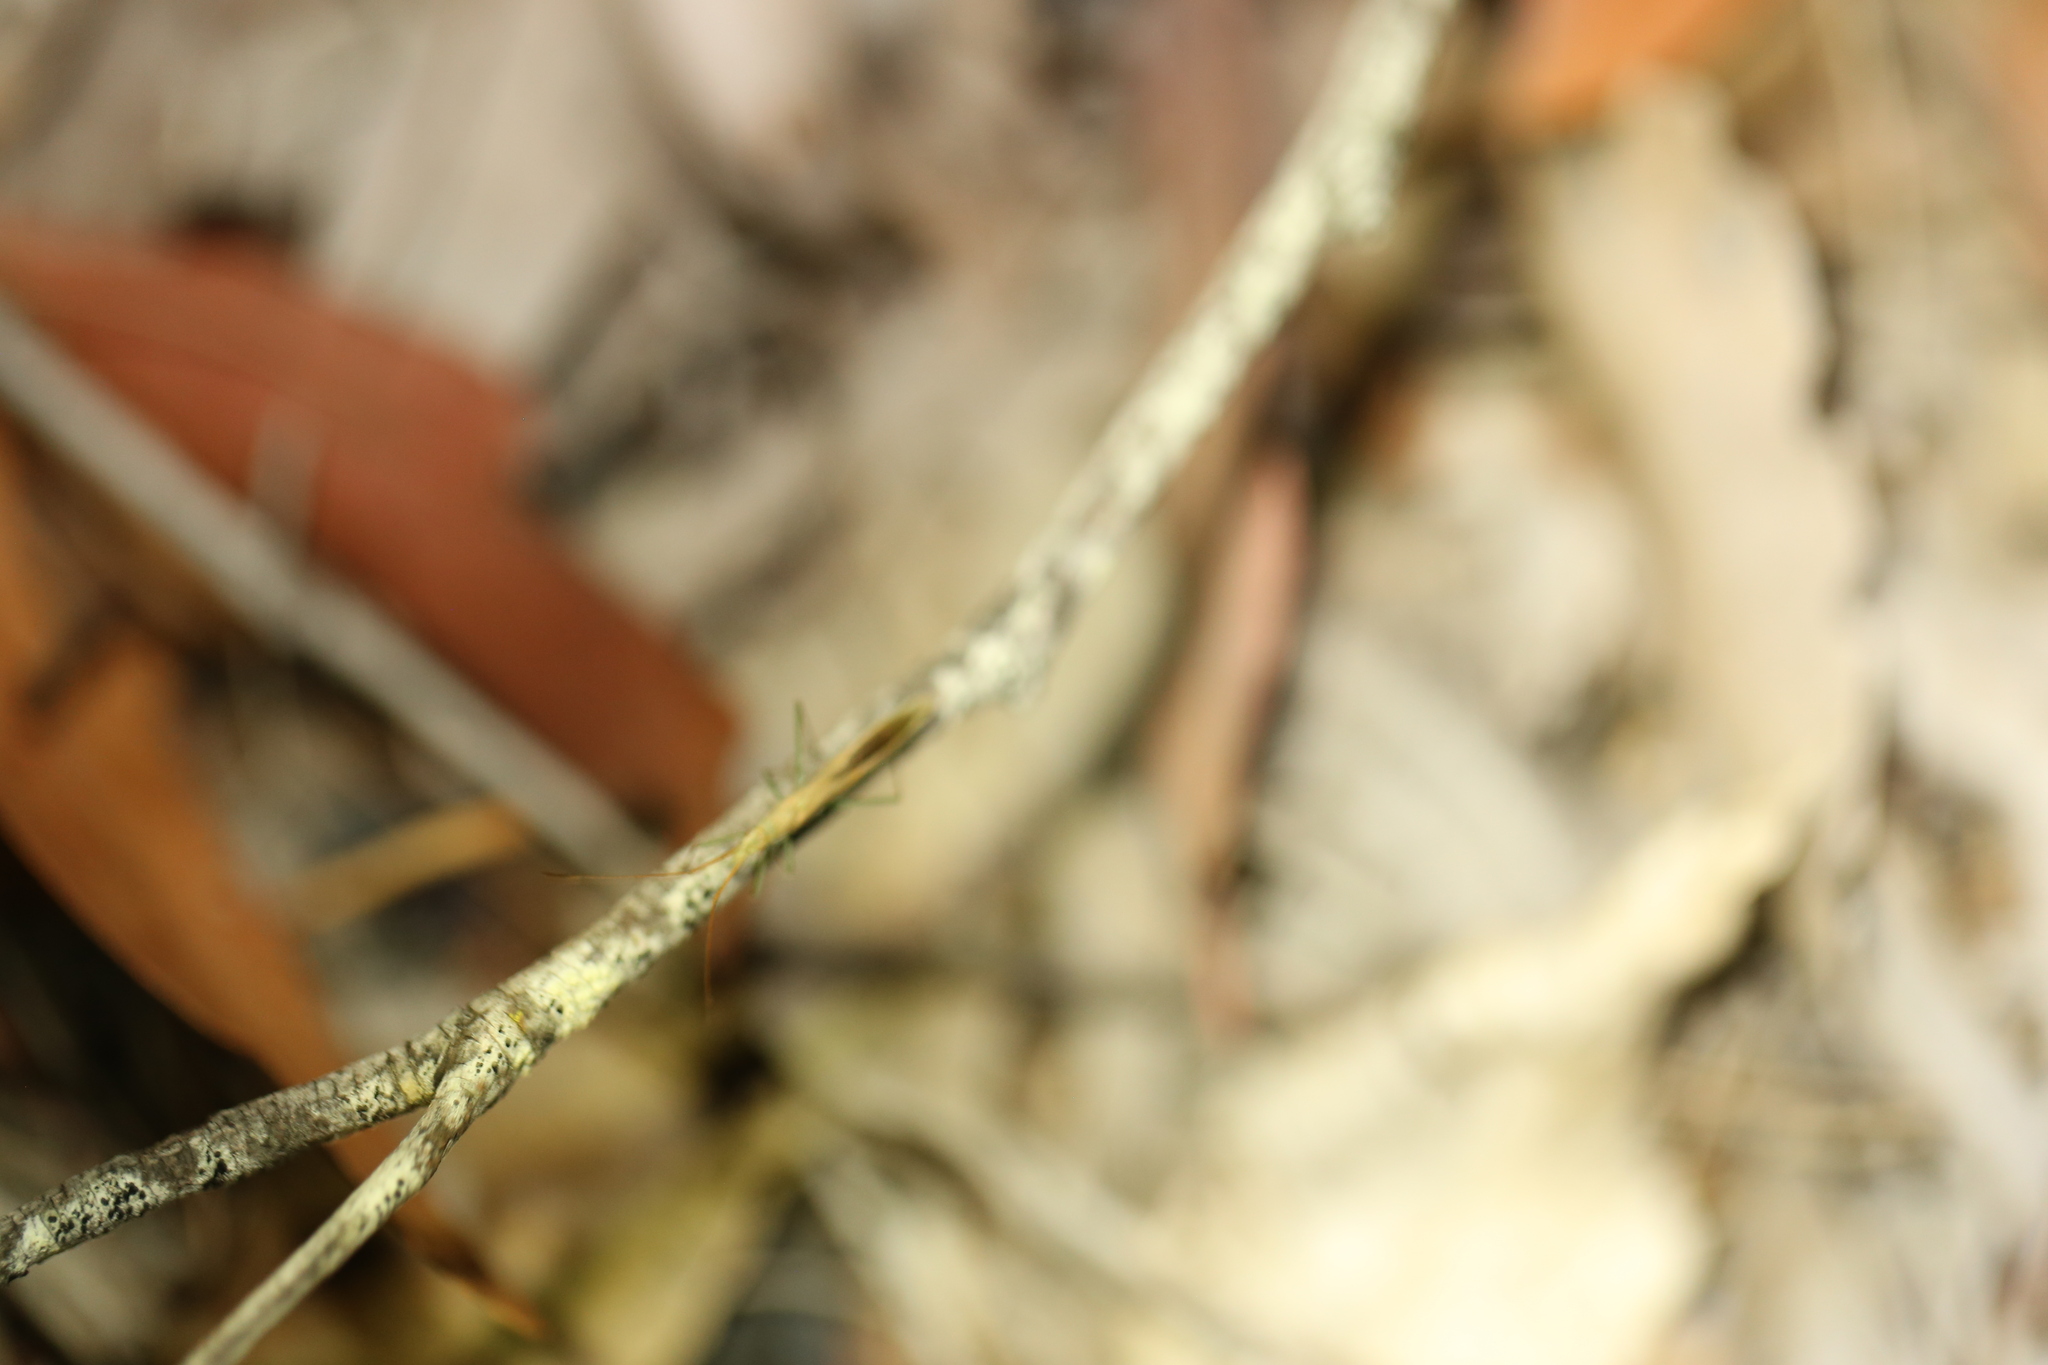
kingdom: Animalia
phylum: Arthropoda
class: Insecta
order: Hemiptera
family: Alydidae
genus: Mutusca
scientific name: Mutusca brevicornis
